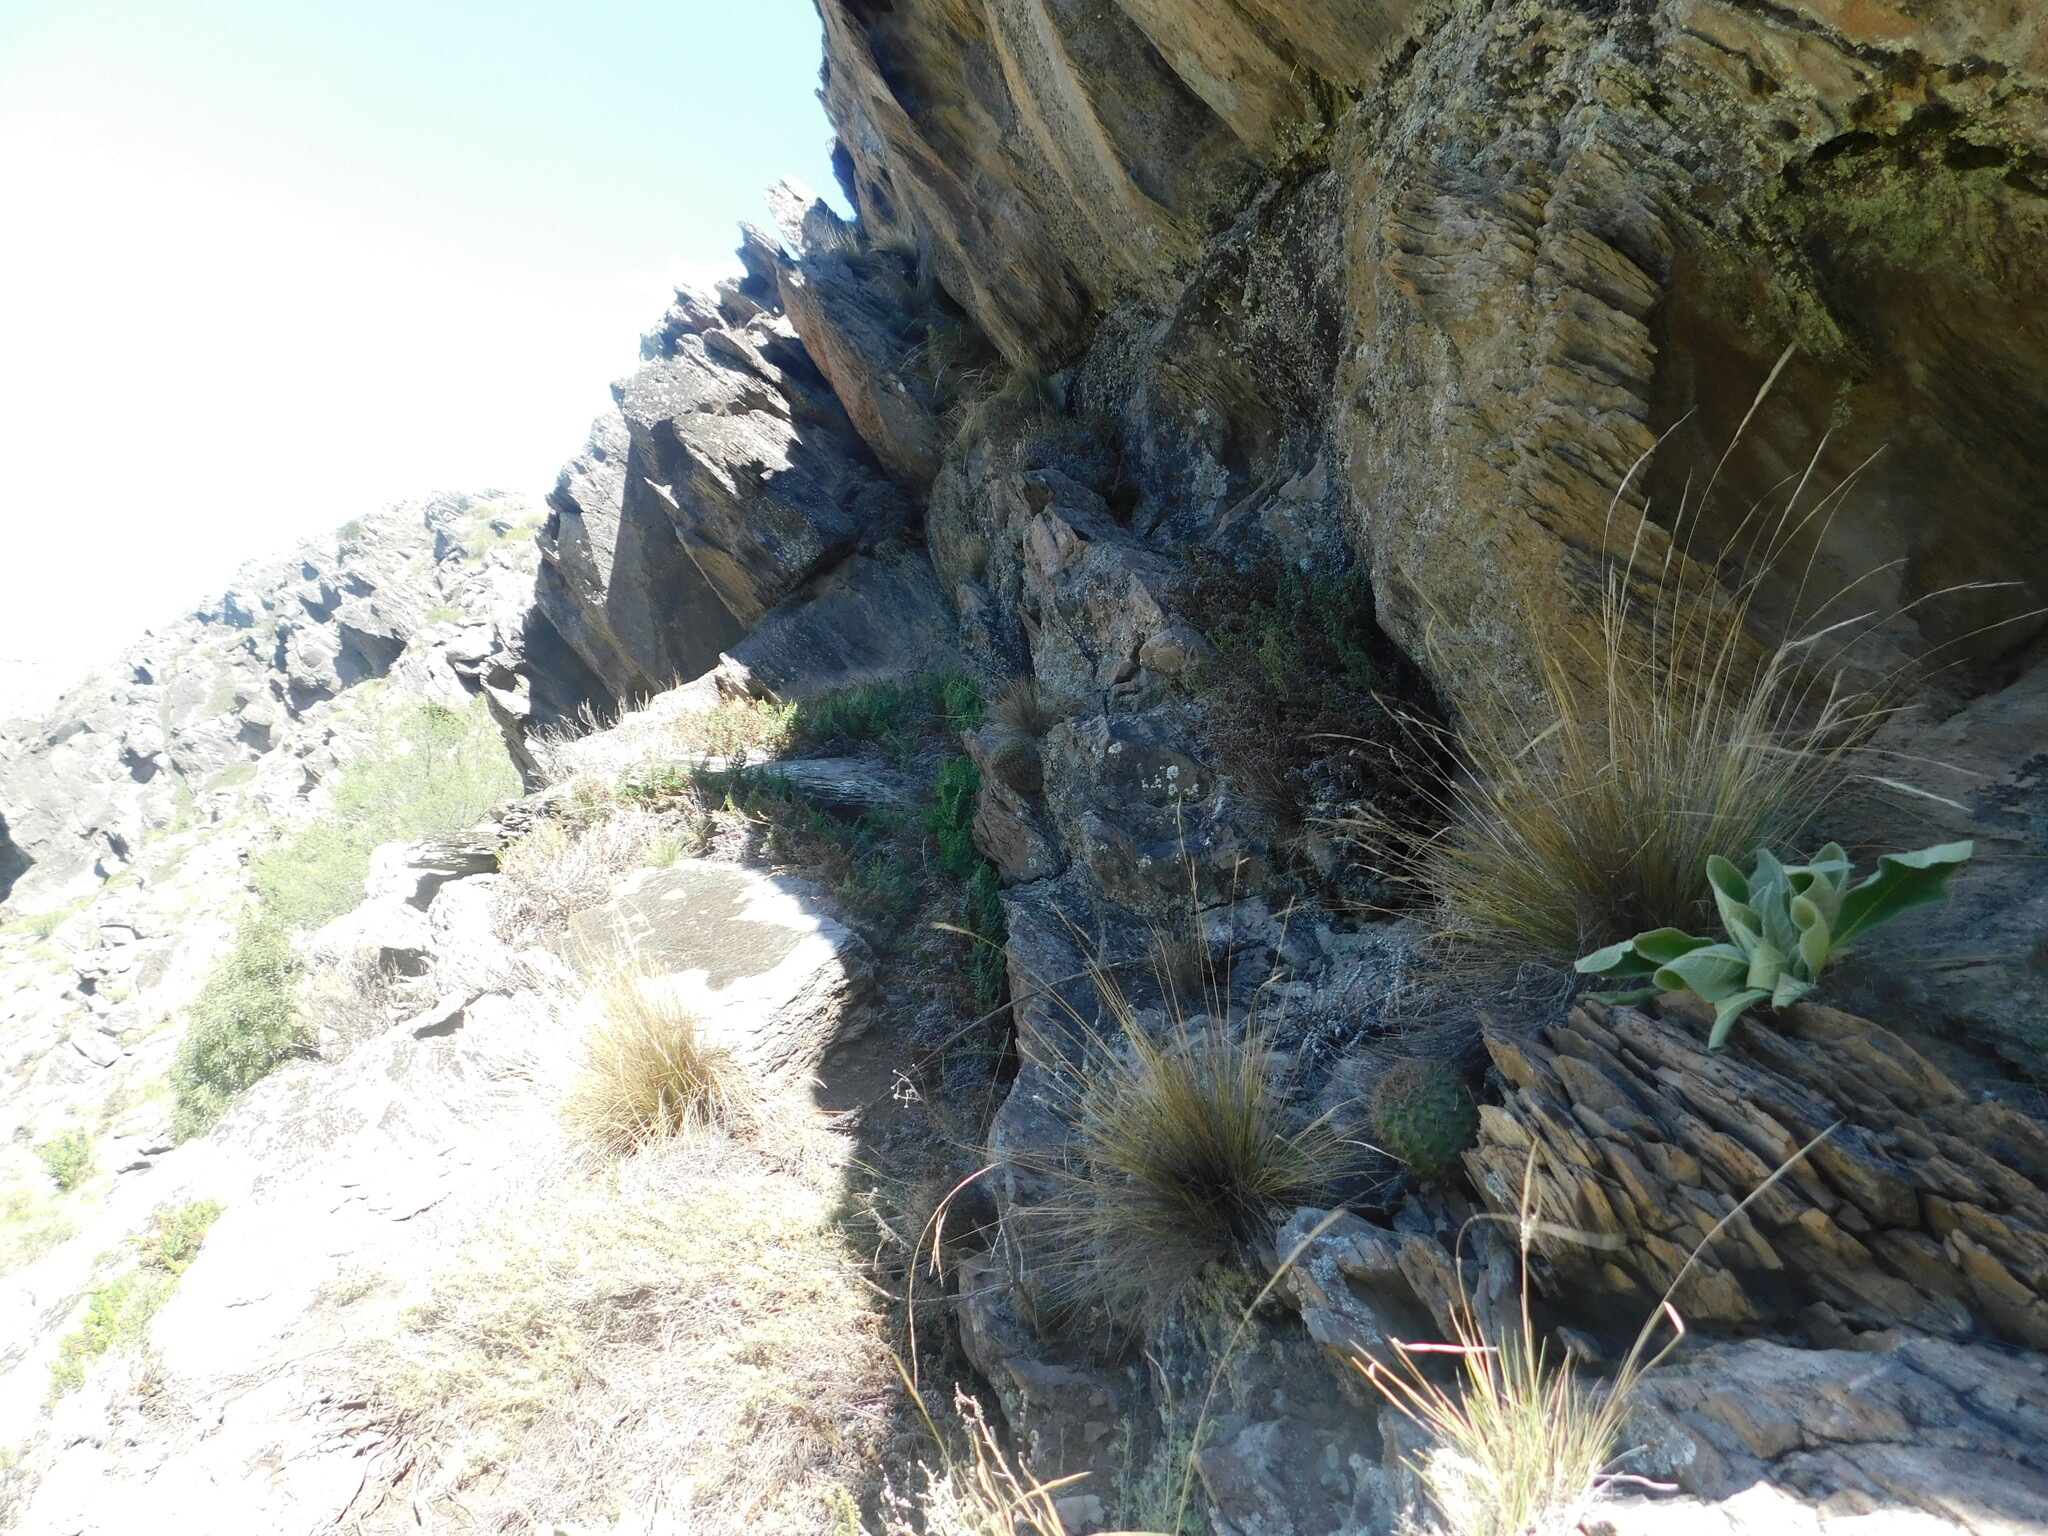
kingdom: Plantae
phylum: Tracheophyta
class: Magnoliopsida
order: Caryophyllales
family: Cactaceae
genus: Gymnocalycium
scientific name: Gymnocalycium reductum
